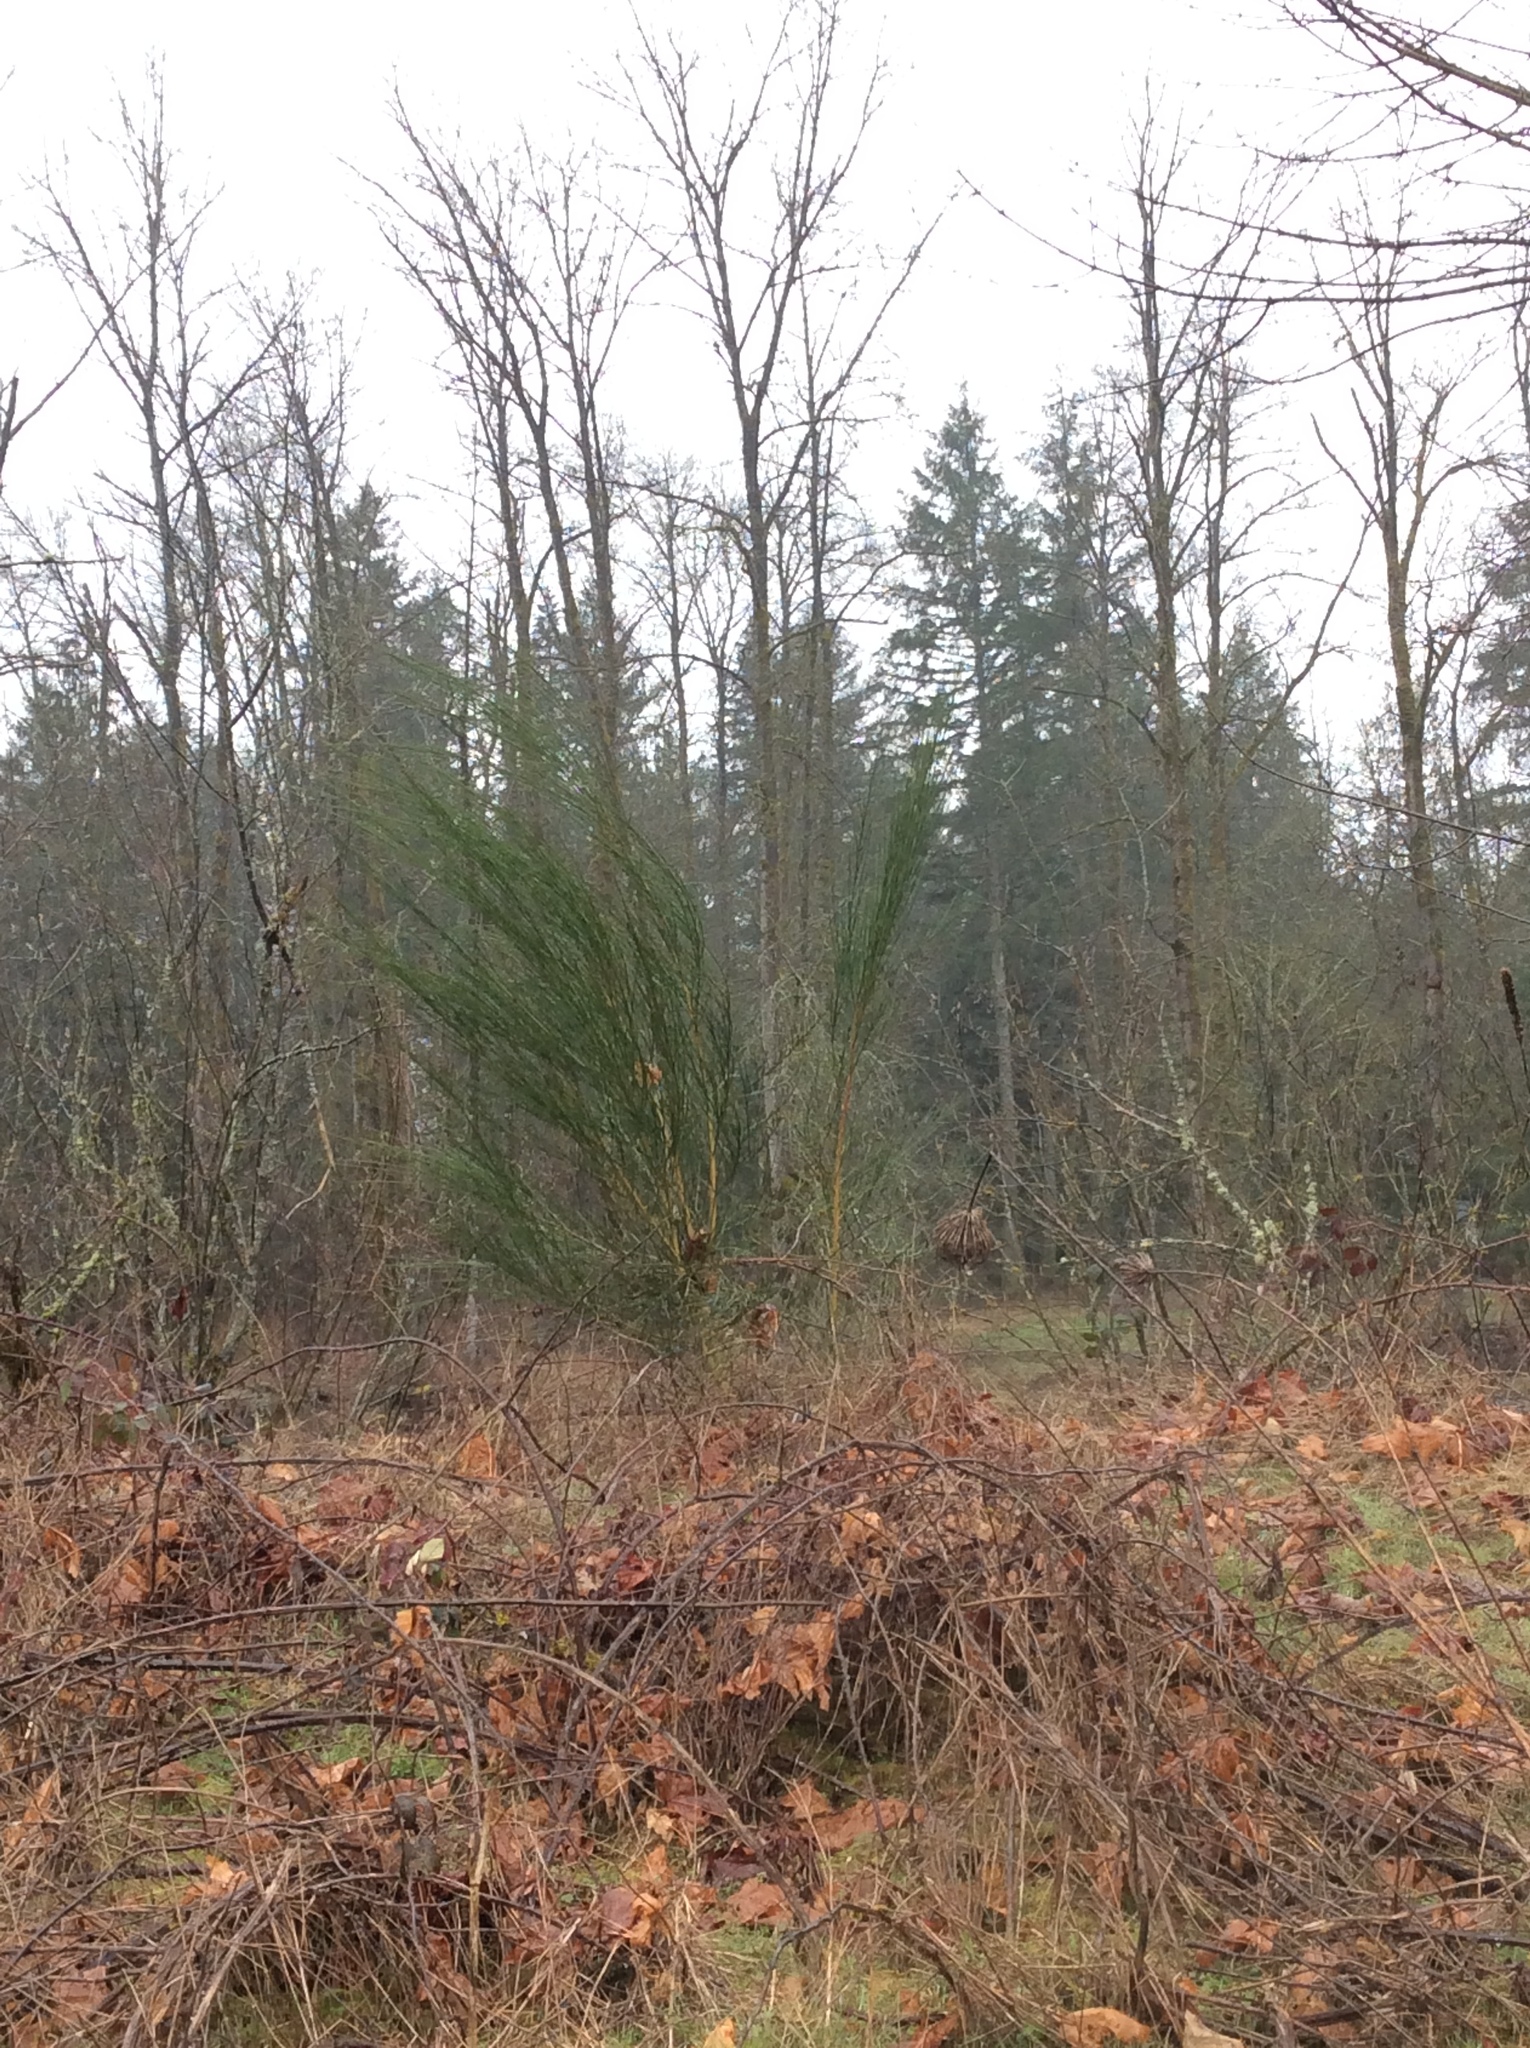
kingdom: Plantae
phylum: Tracheophyta
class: Magnoliopsida
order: Fabales
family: Fabaceae
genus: Cytisus
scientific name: Cytisus scoparius
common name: Scotch broom
